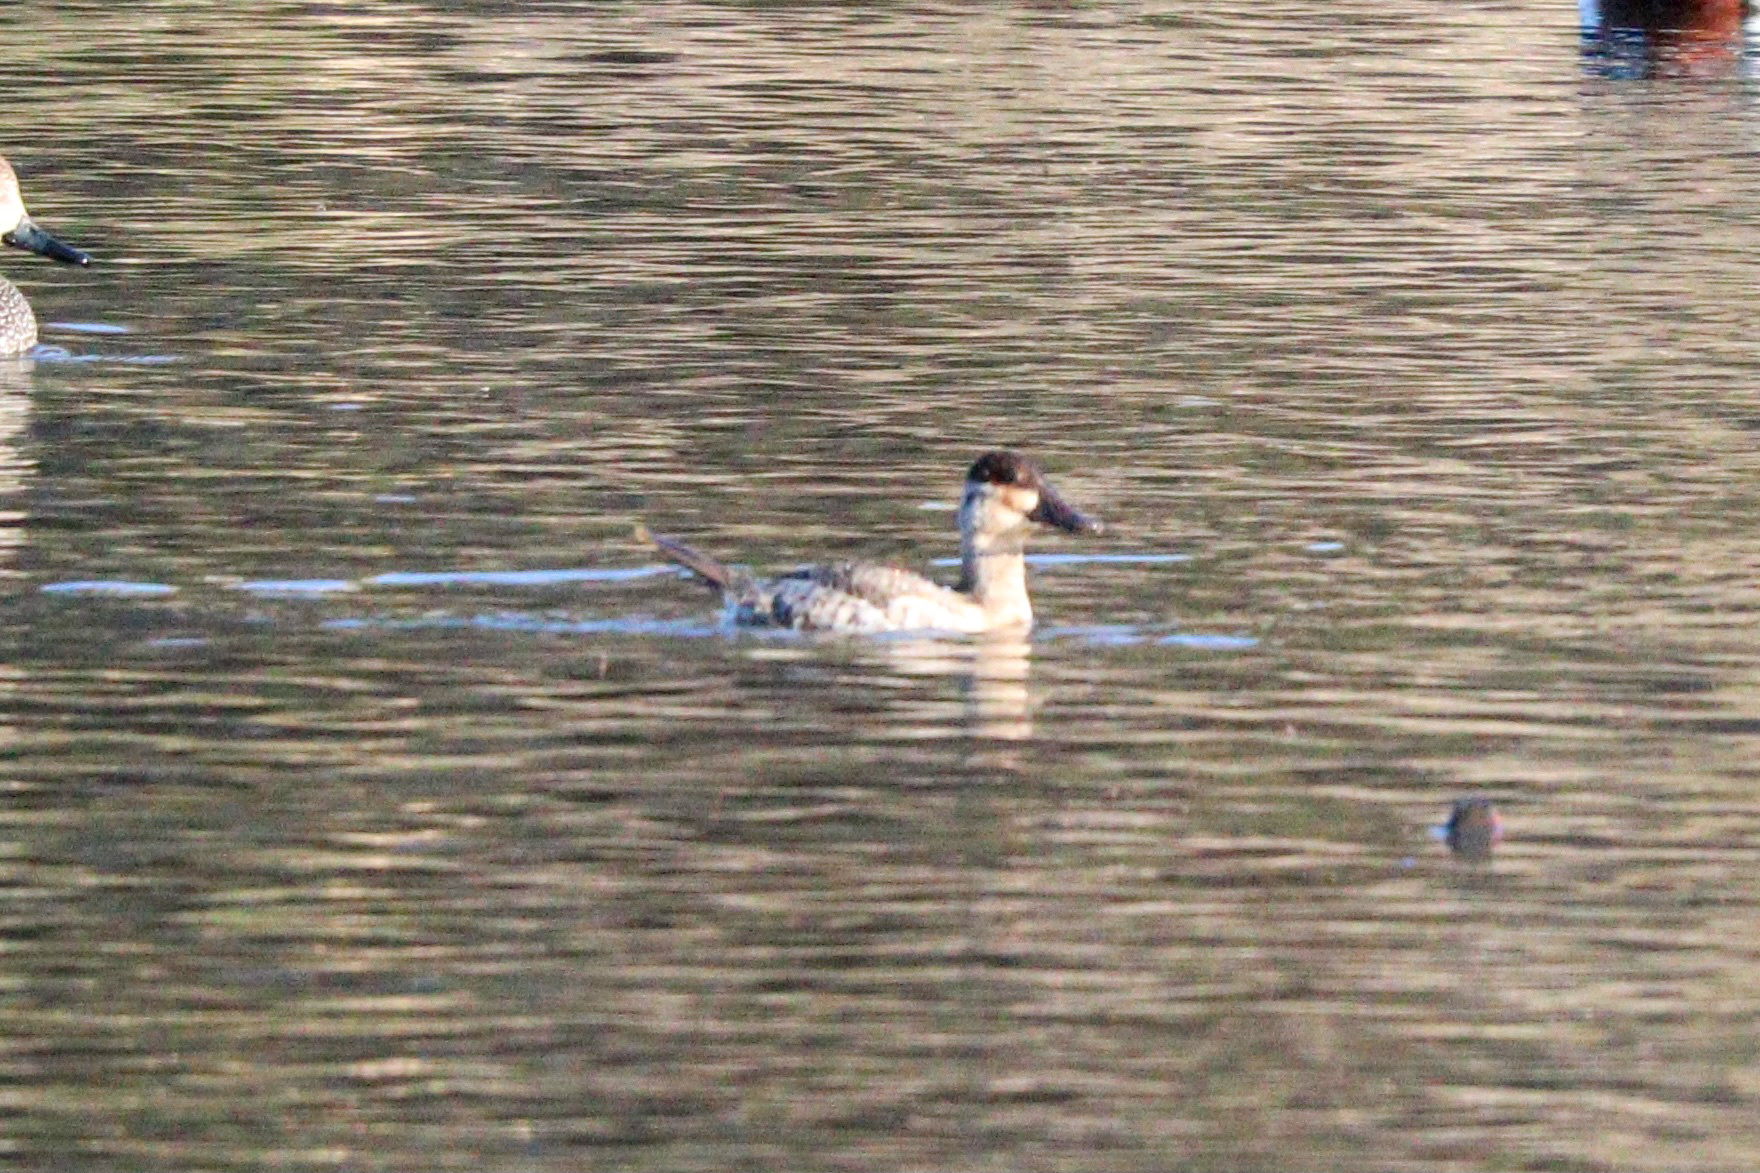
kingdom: Animalia
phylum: Chordata
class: Aves
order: Anseriformes
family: Anatidae
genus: Oxyura
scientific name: Oxyura jamaicensis
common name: Ruddy duck
